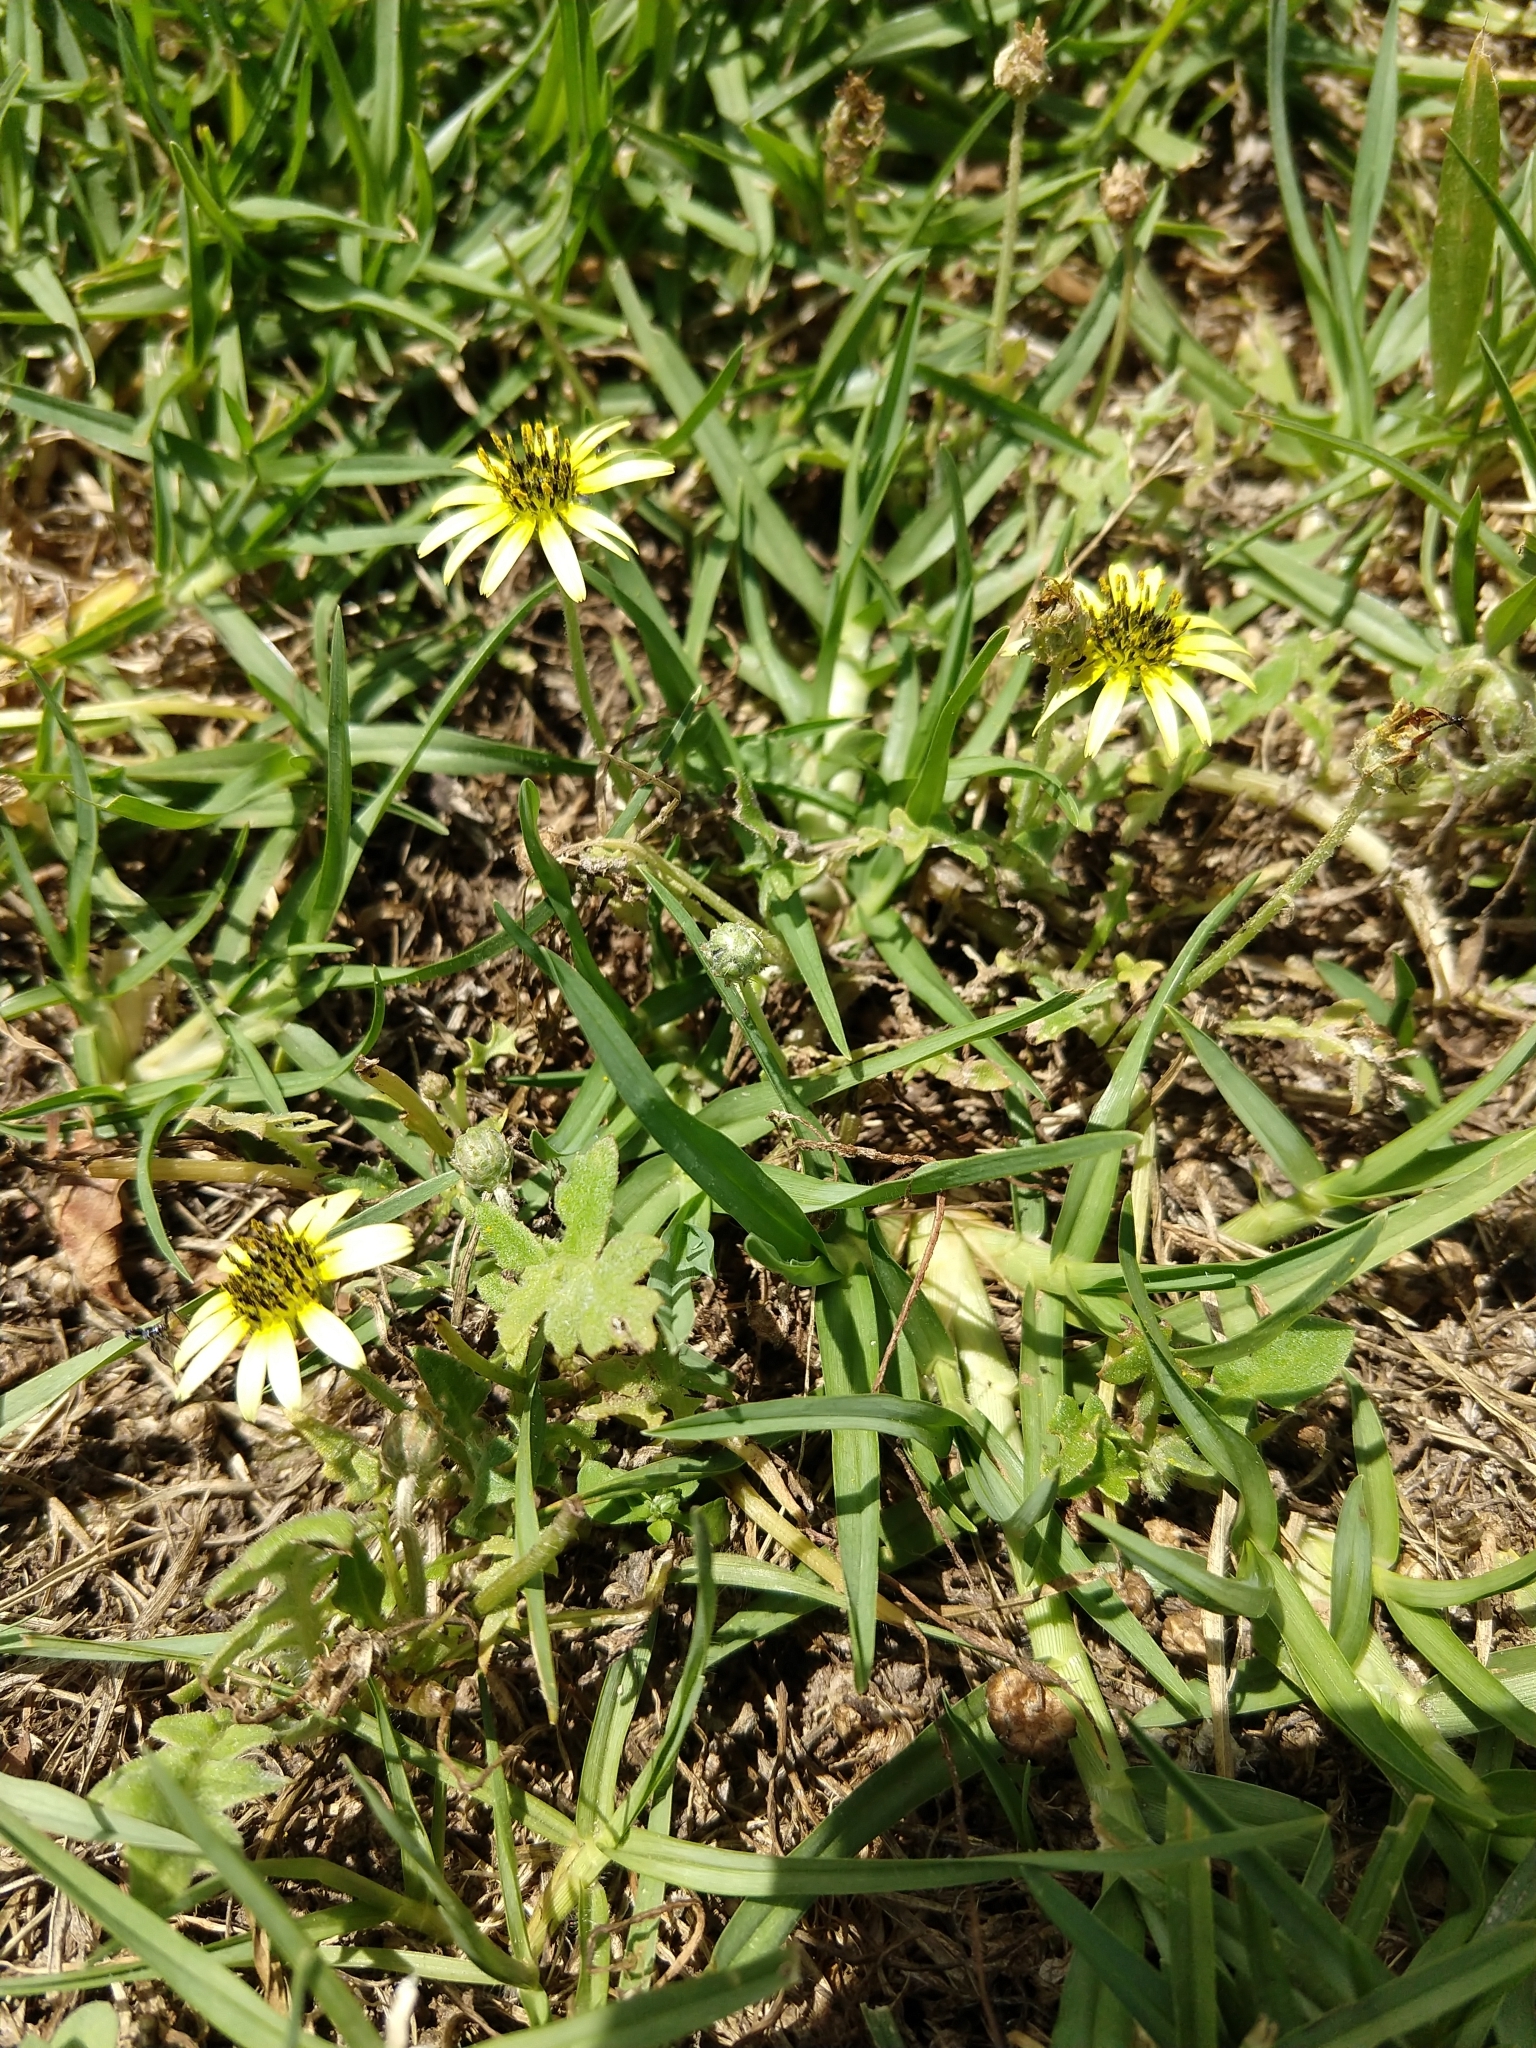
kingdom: Plantae
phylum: Tracheophyta
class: Magnoliopsida
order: Asterales
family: Asteraceae
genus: Arctotheca
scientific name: Arctotheca calendula
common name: Capeweed
